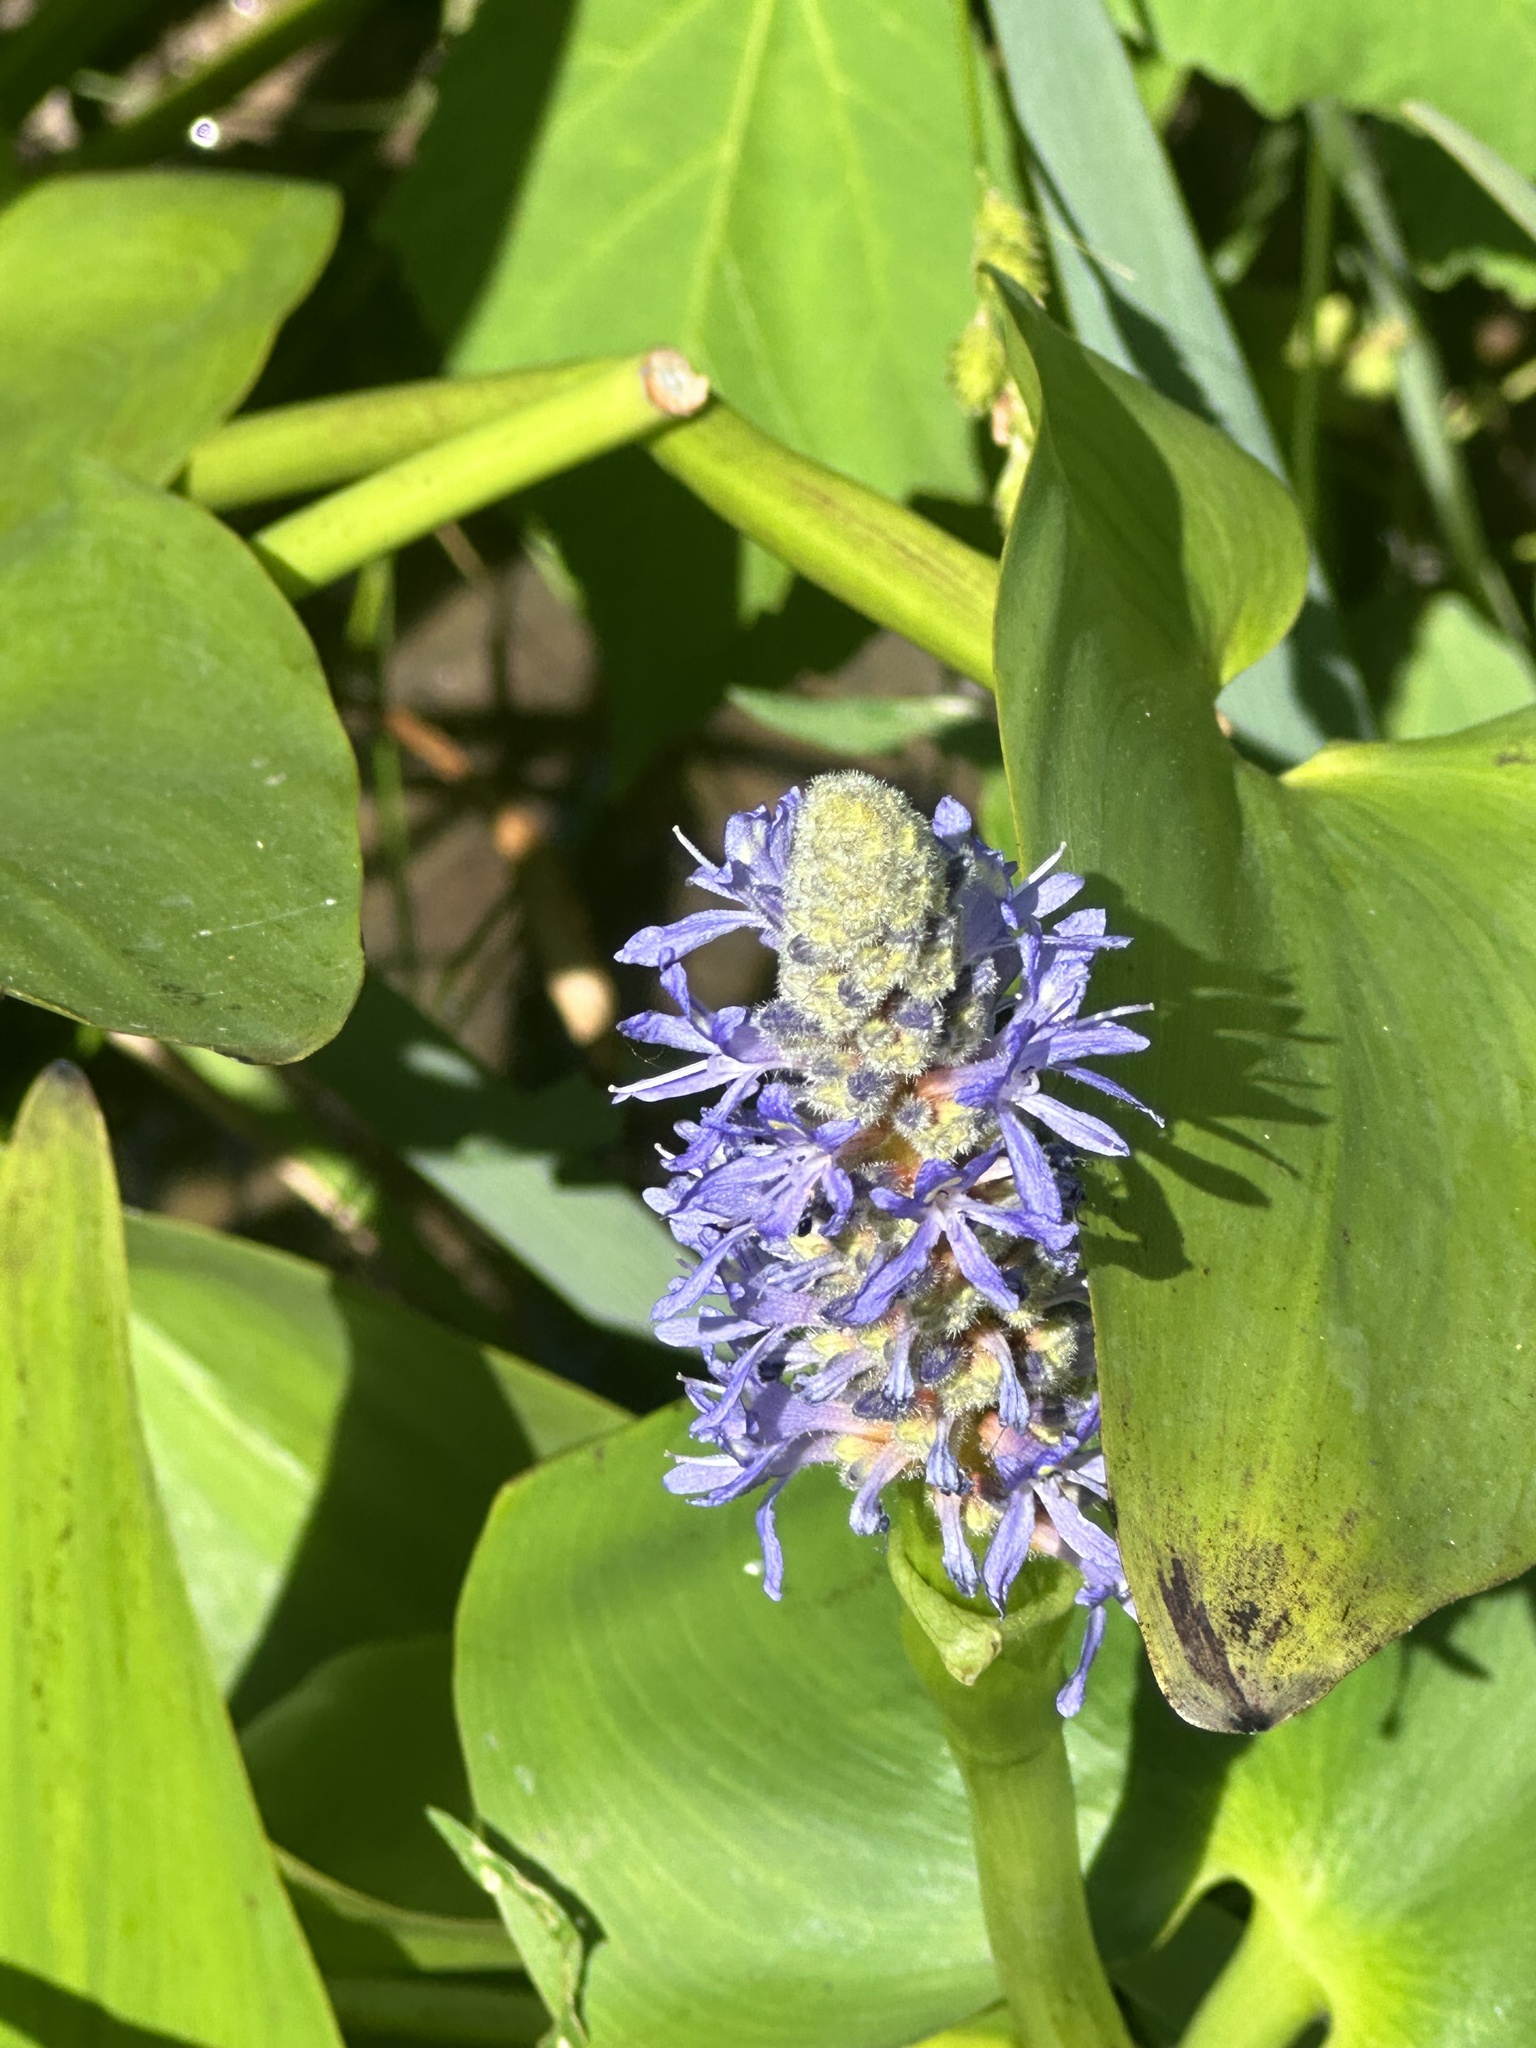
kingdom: Plantae
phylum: Tracheophyta
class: Liliopsida
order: Commelinales
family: Pontederiaceae
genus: Pontederia
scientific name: Pontederia cordata
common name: Pickerelweed
